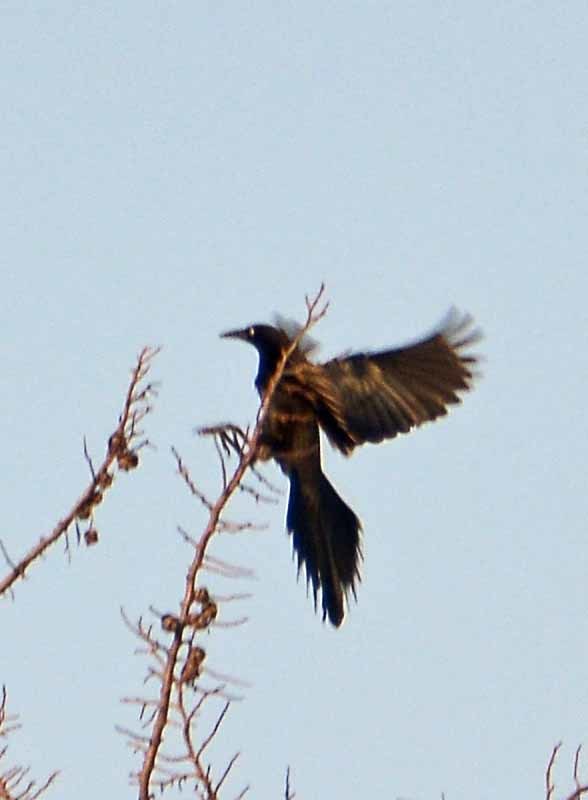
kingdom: Animalia
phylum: Chordata
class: Aves
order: Passeriformes
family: Icteridae
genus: Quiscalus
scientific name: Quiscalus mexicanus
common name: Great-tailed grackle
